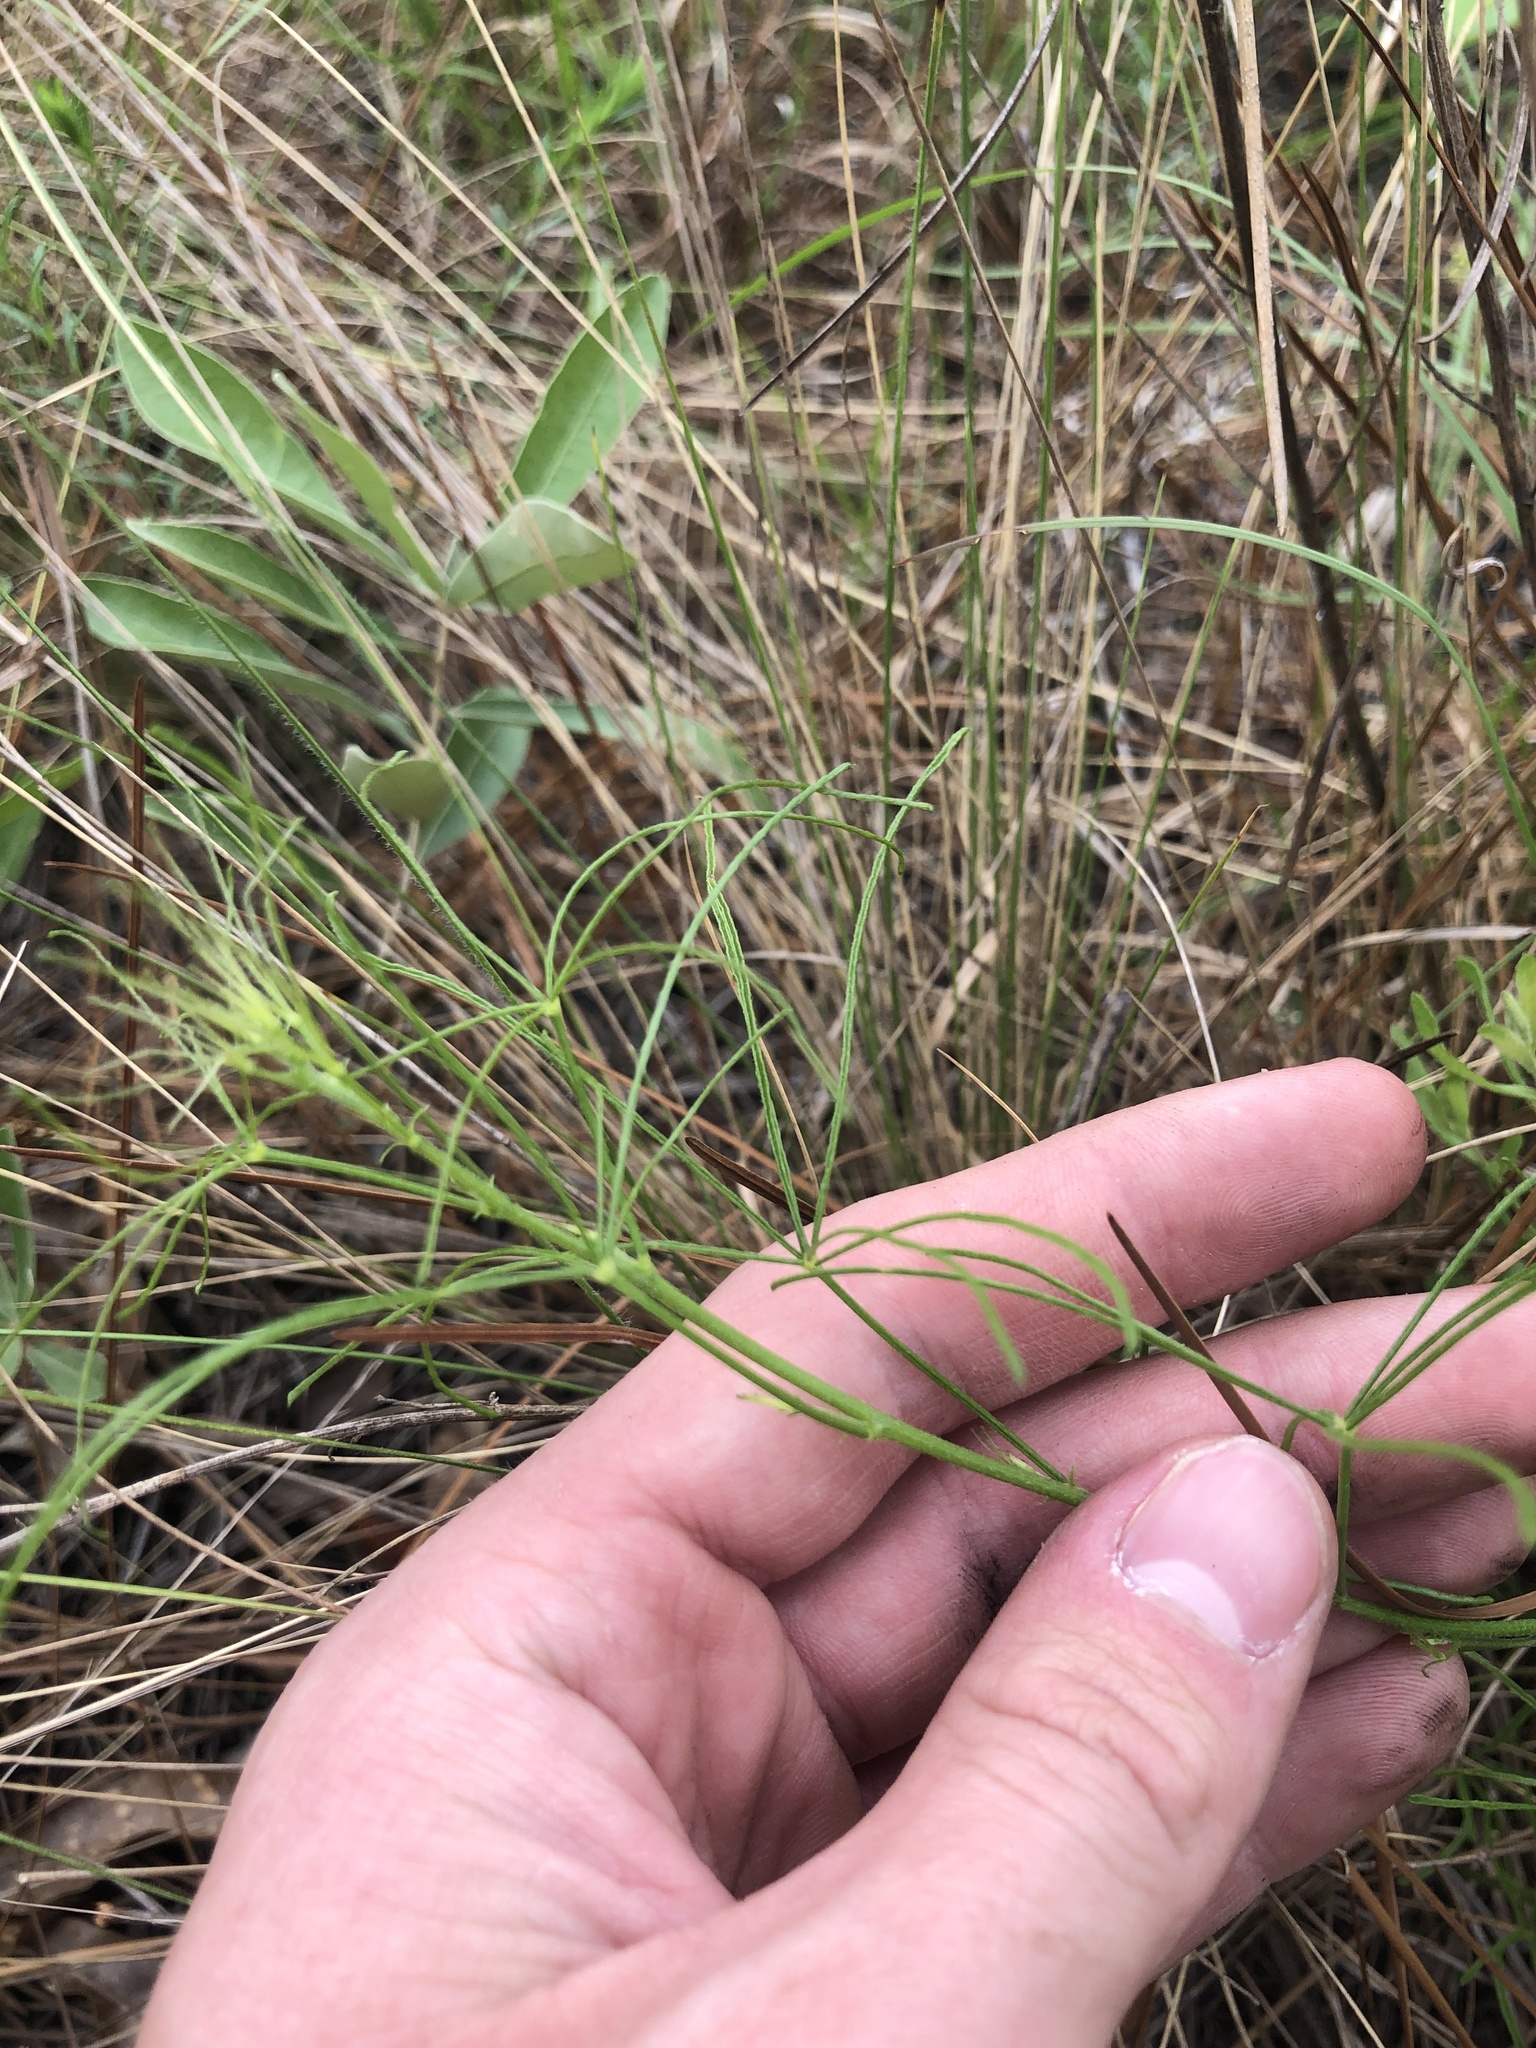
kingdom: Plantae
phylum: Tracheophyta
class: Magnoliopsida
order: Fabales
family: Fabaceae
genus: Orbexilum
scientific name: Orbexilum lupinellus
